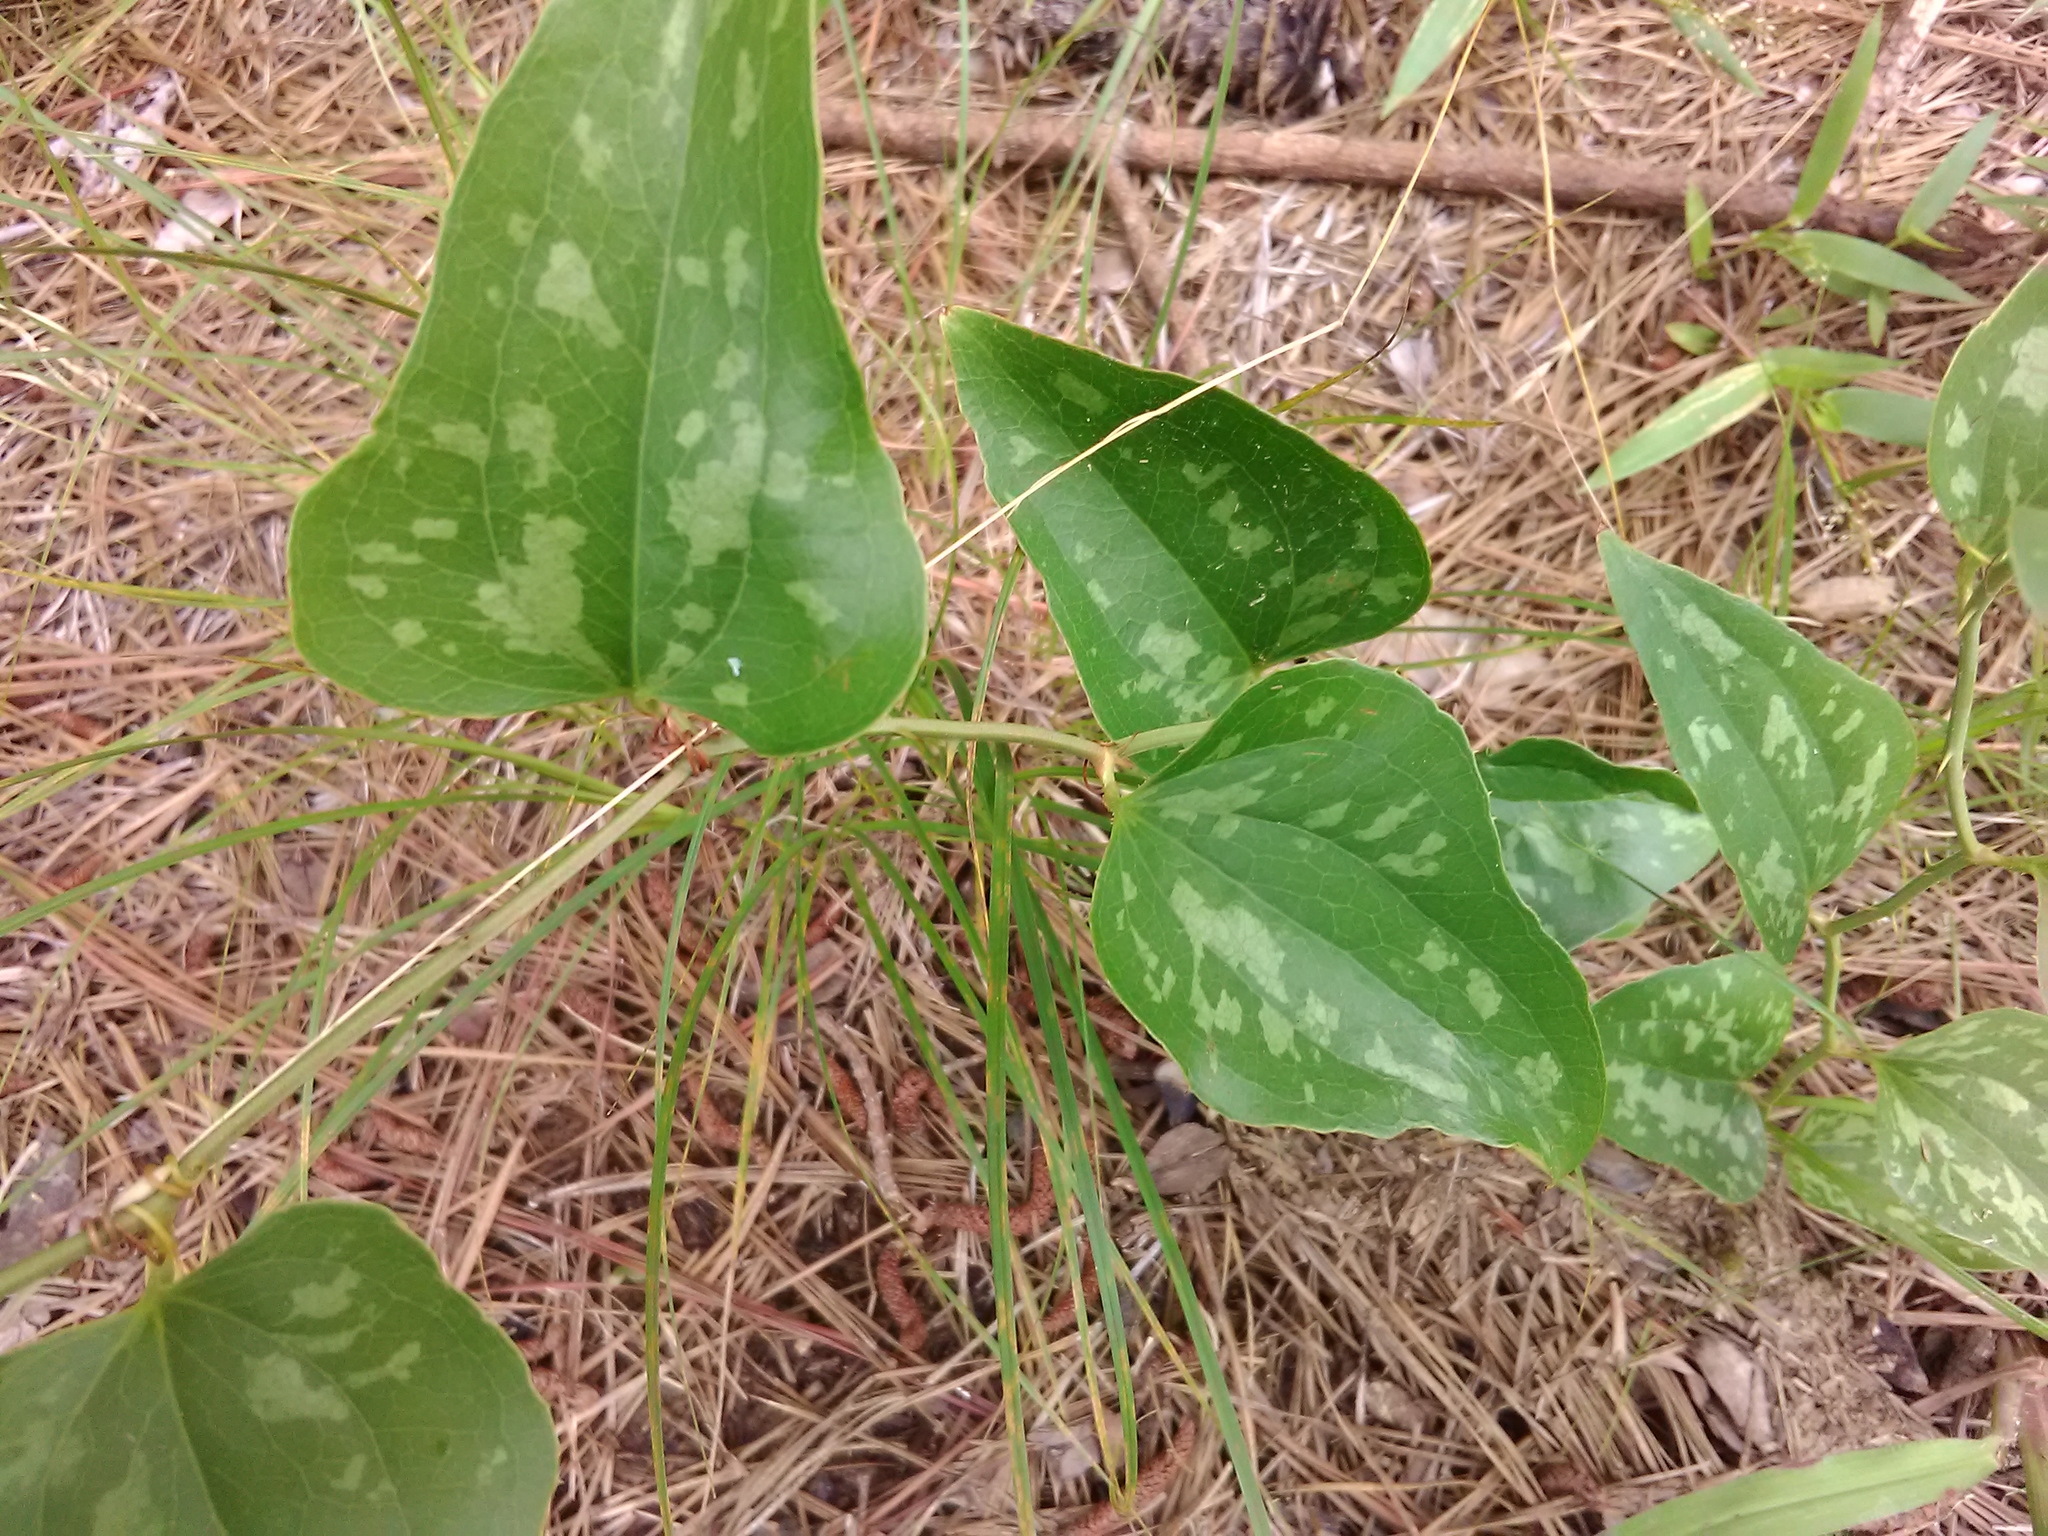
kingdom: Plantae
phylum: Tracheophyta
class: Liliopsida
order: Liliales
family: Smilacaceae
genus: Smilax
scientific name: Smilax bona-nox
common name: Catbrier
